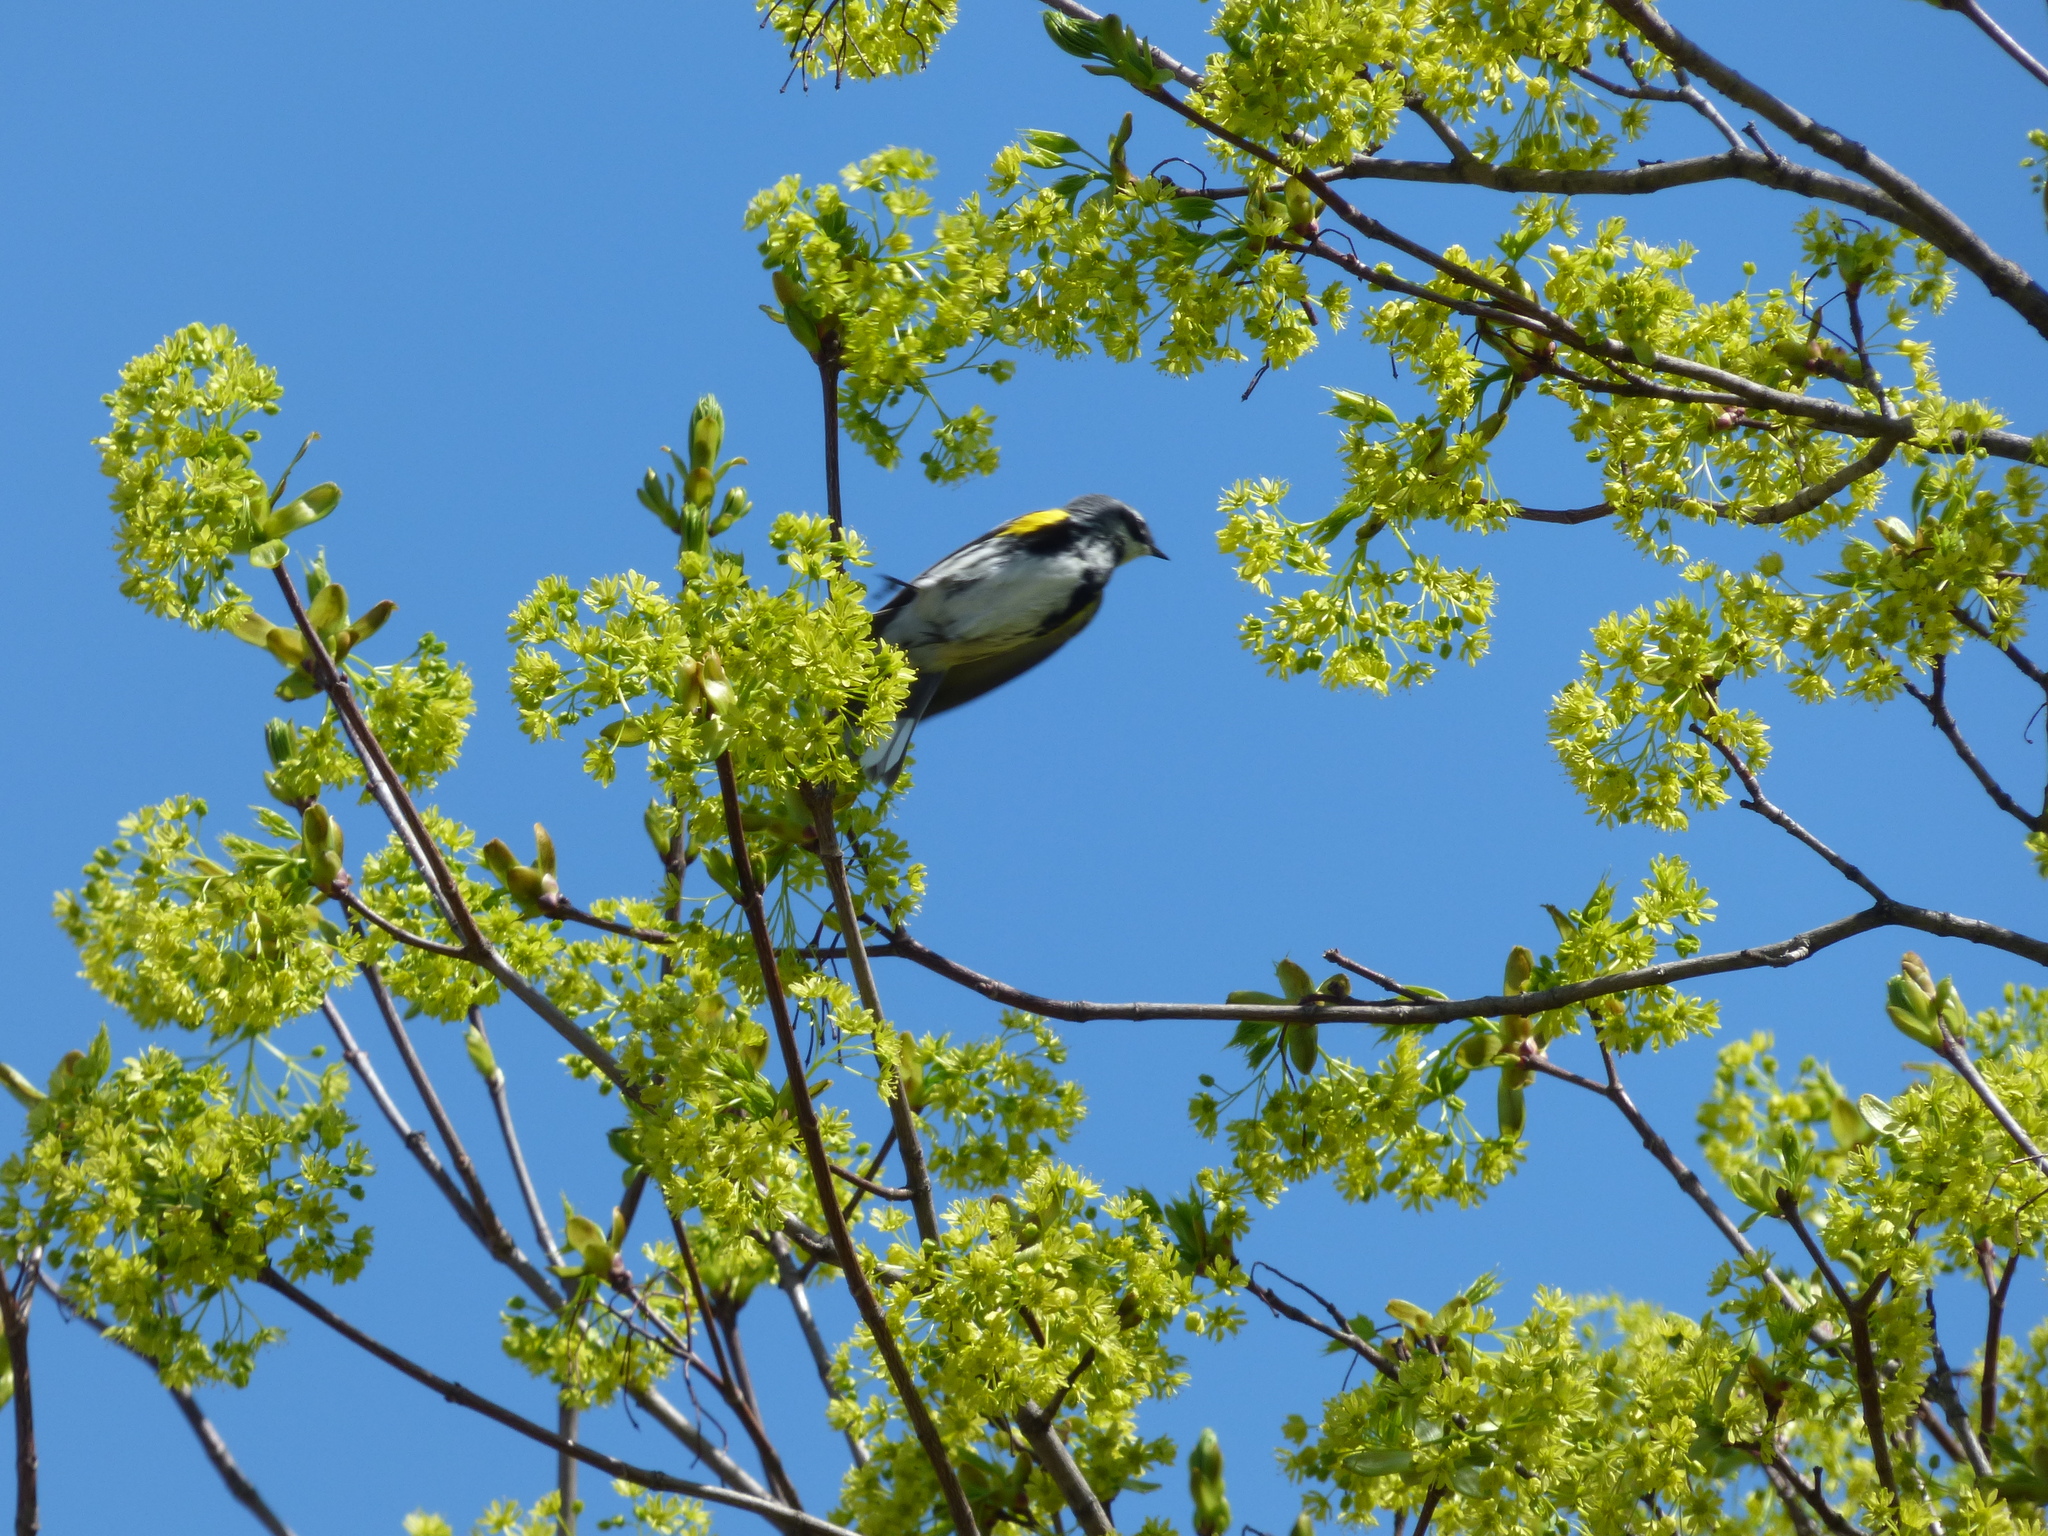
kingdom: Animalia
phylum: Chordata
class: Aves
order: Passeriformes
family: Parulidae
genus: Setophaga
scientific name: Setophaga coronata
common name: Myrtle warbler
